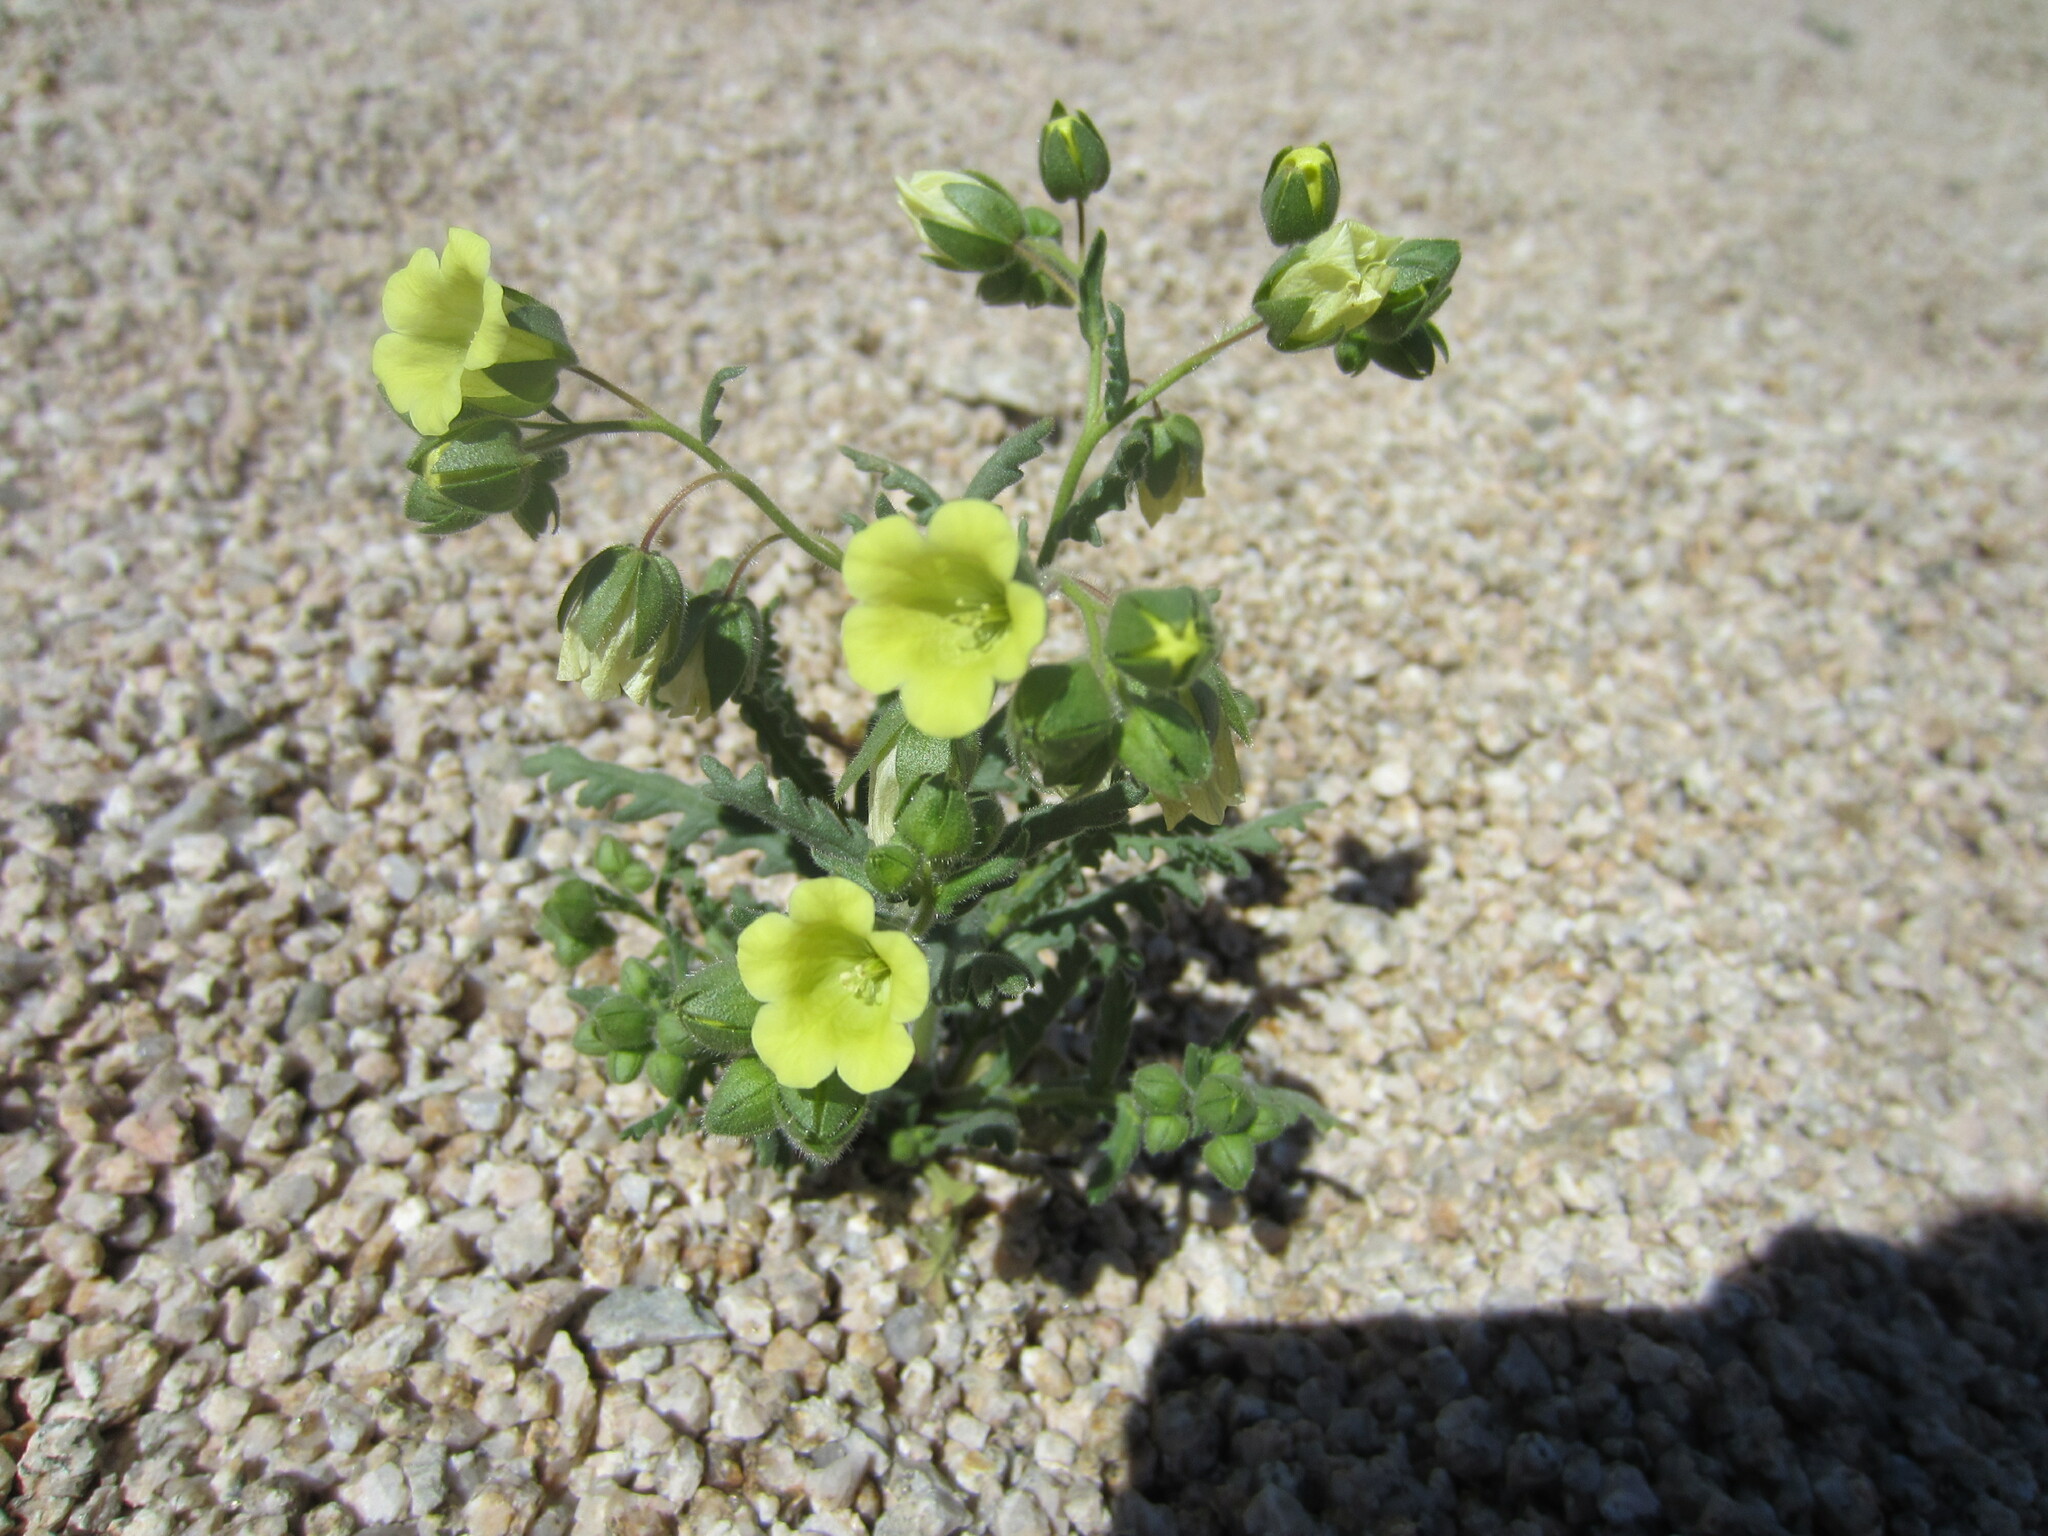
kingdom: Plantae
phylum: Tracheophyta
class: Magnoliopsida
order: Boraginales
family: Hydrophyllaceae
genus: Emmenanthe
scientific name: Emmenanthe penduliflora
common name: Whispering-bells
